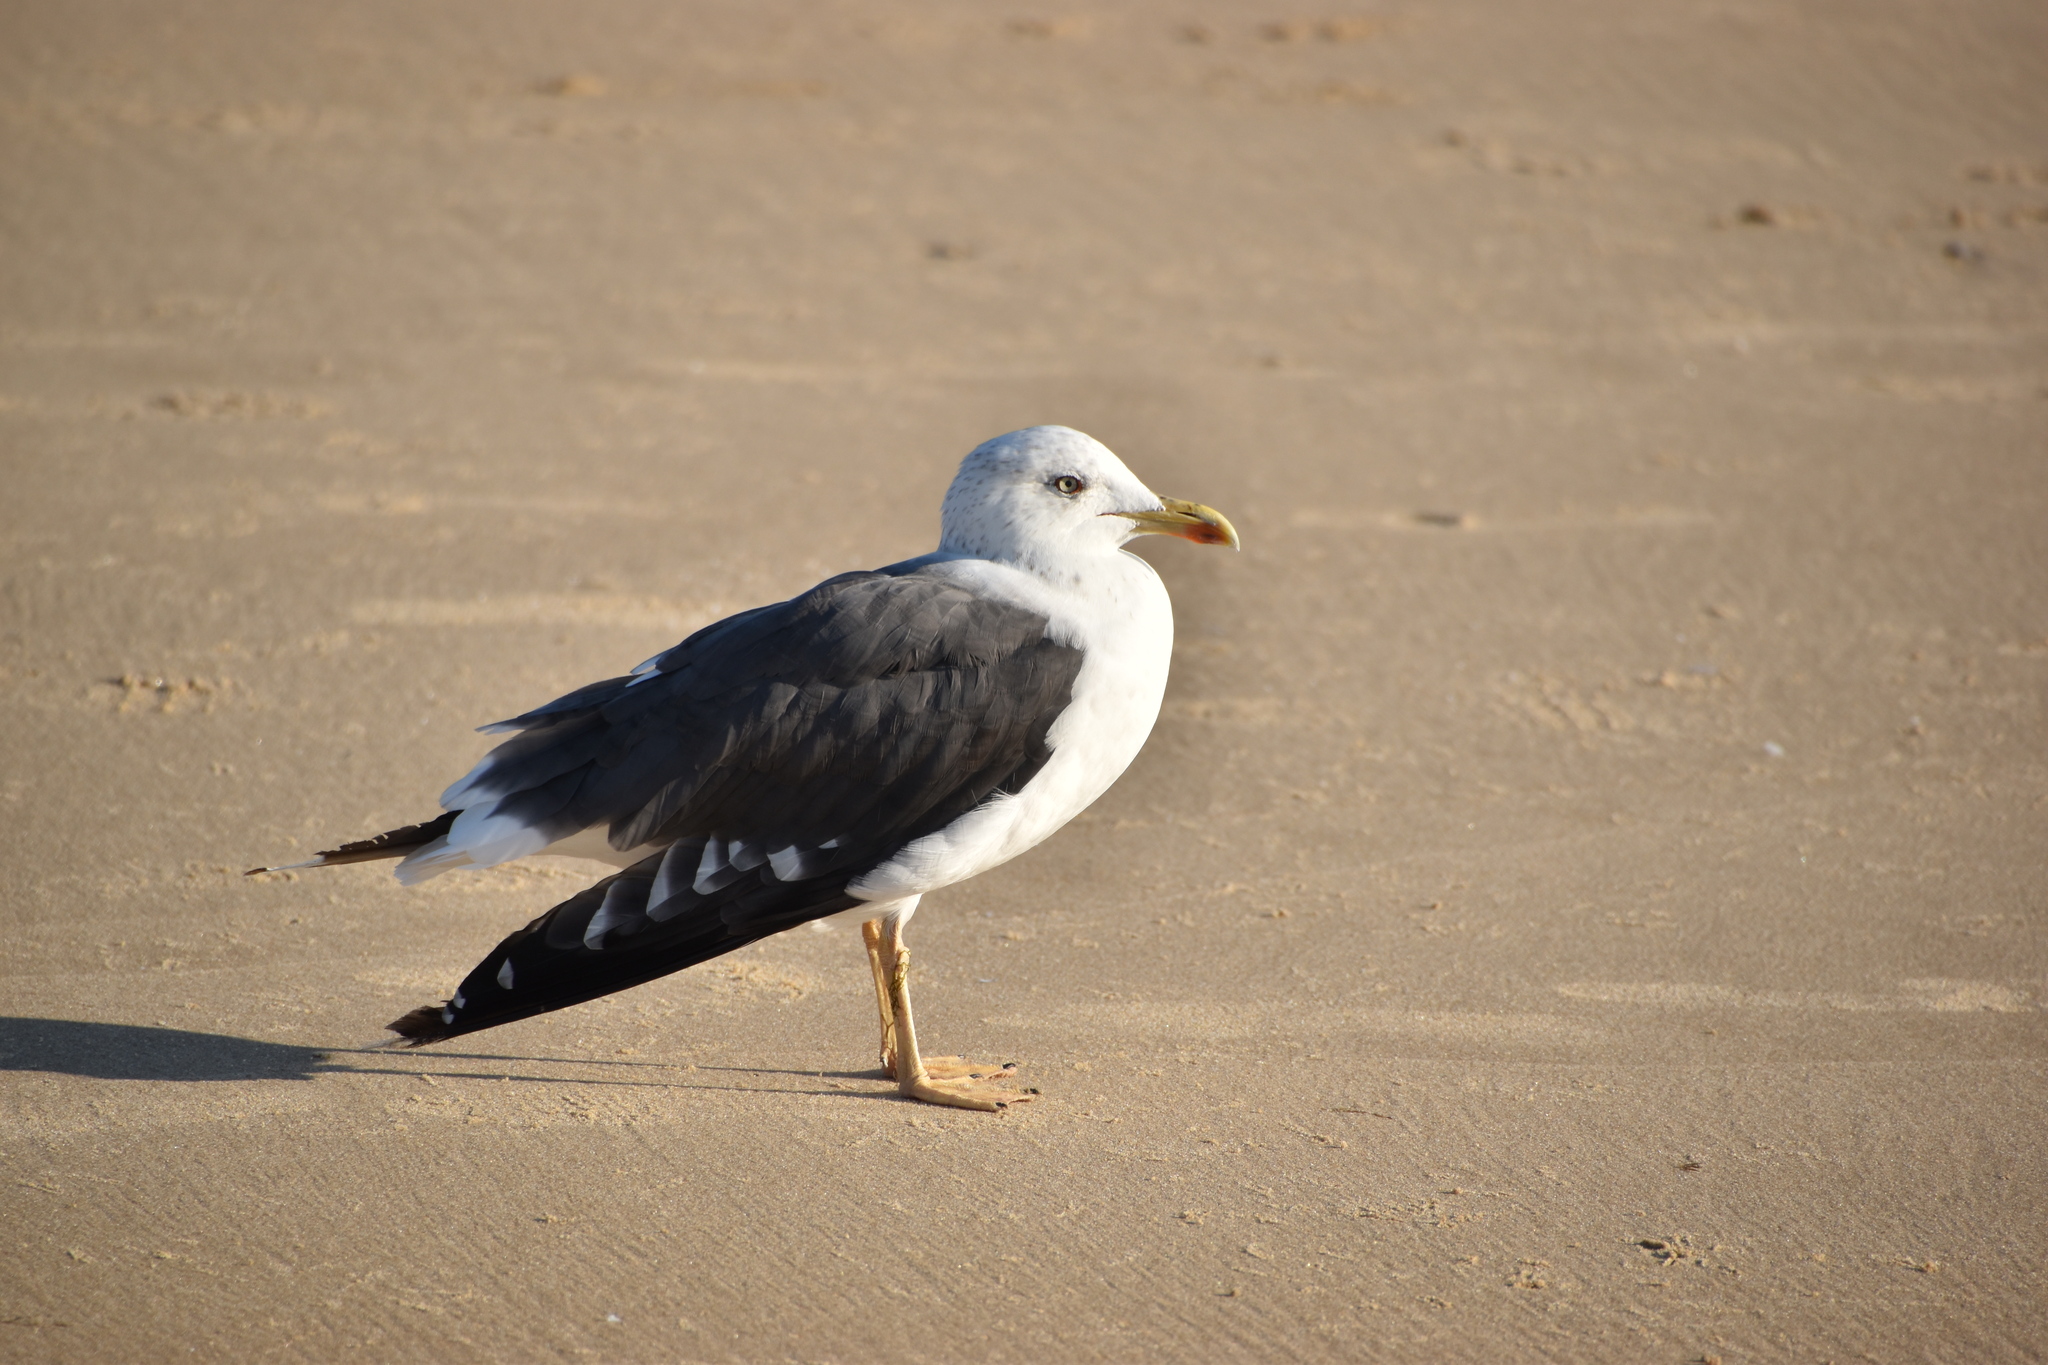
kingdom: Animalia
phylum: Chordata
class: Aves
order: Charadriiformes
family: Laridae
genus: Larus
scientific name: Larus fuscus
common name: Lesser black-backed gull
